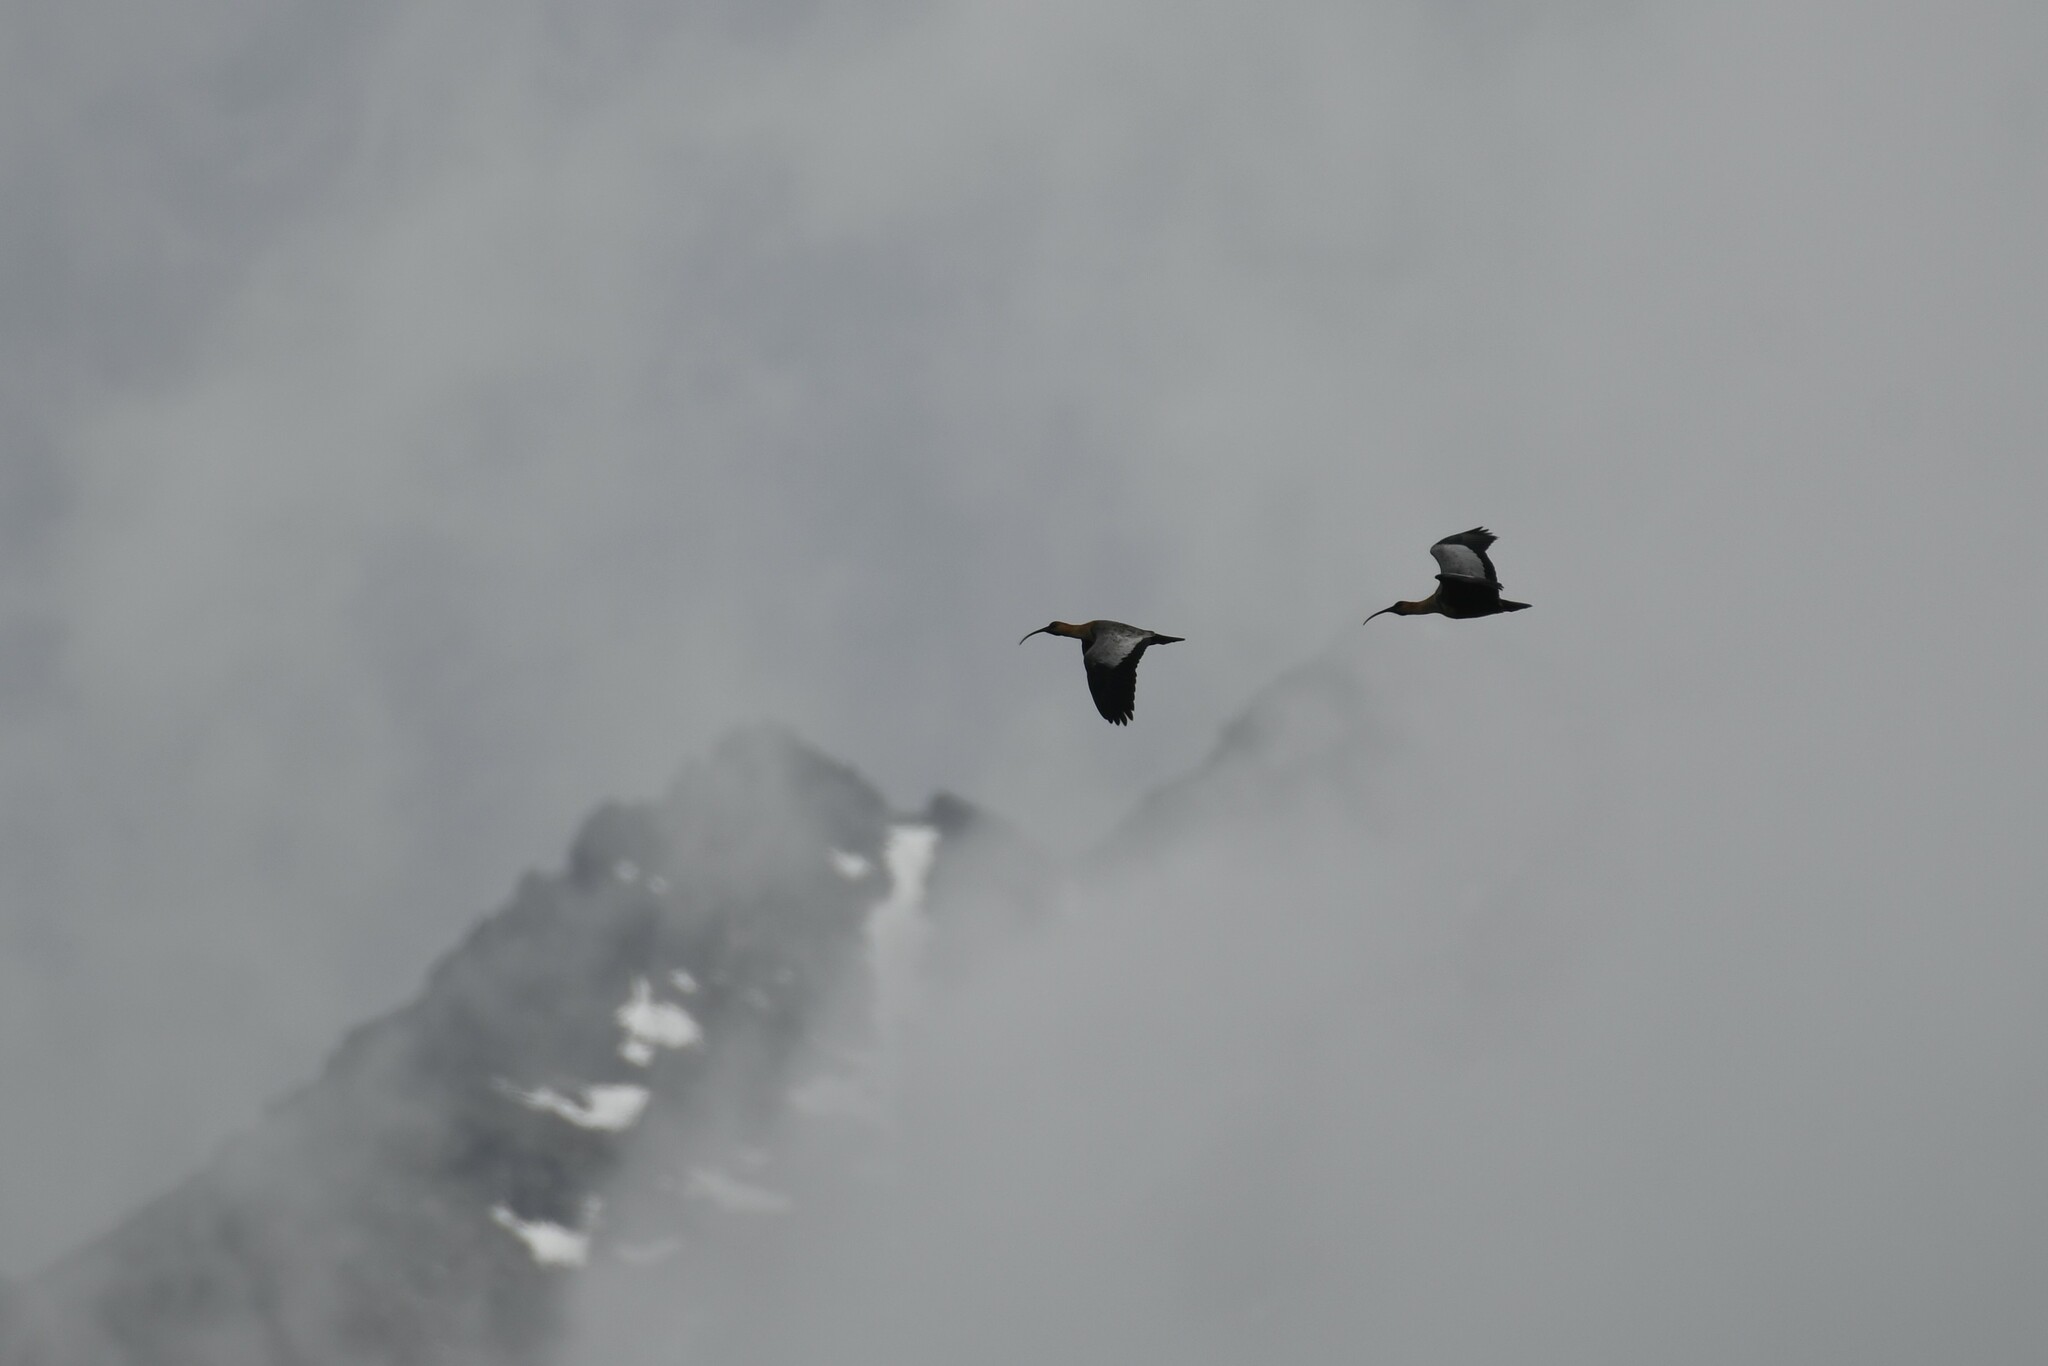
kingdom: Animalia
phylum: Chordata
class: Aves
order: Pelecaniformes
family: Threskiornithidae
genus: Theristicus
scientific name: Theristicus melanopis
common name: Black-faced ibis
